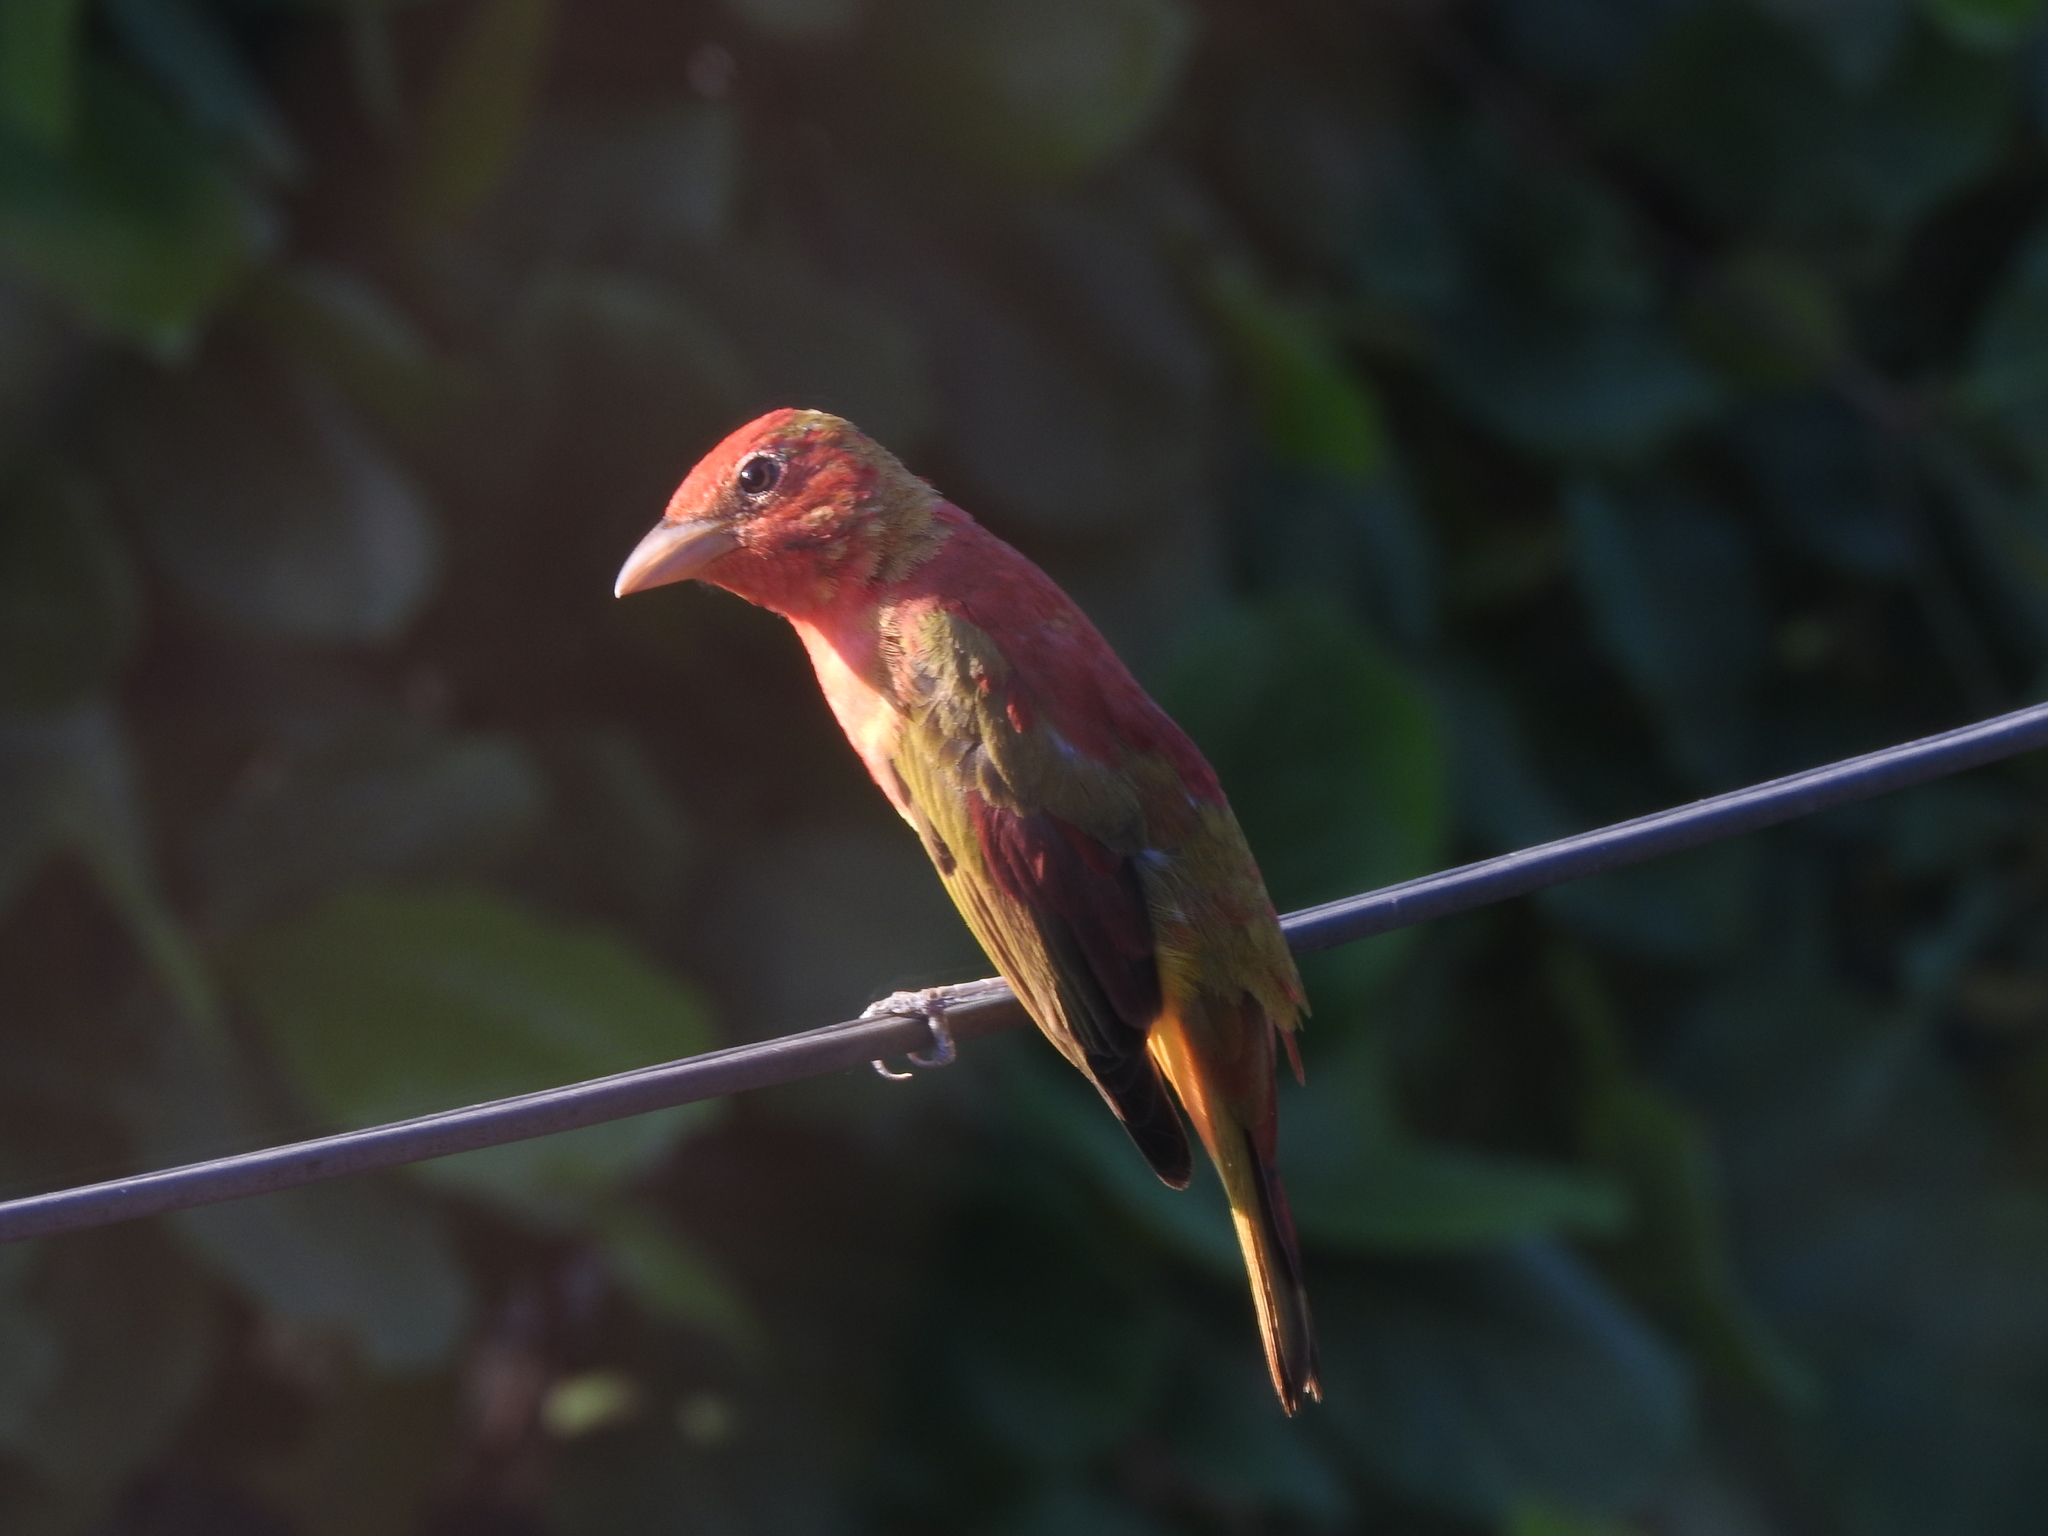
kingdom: Animalia
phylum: Chordata
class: Aves
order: Passeriformes
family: Cardinalidae
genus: Piranga
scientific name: Piranga rubra
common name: Summer tanager
